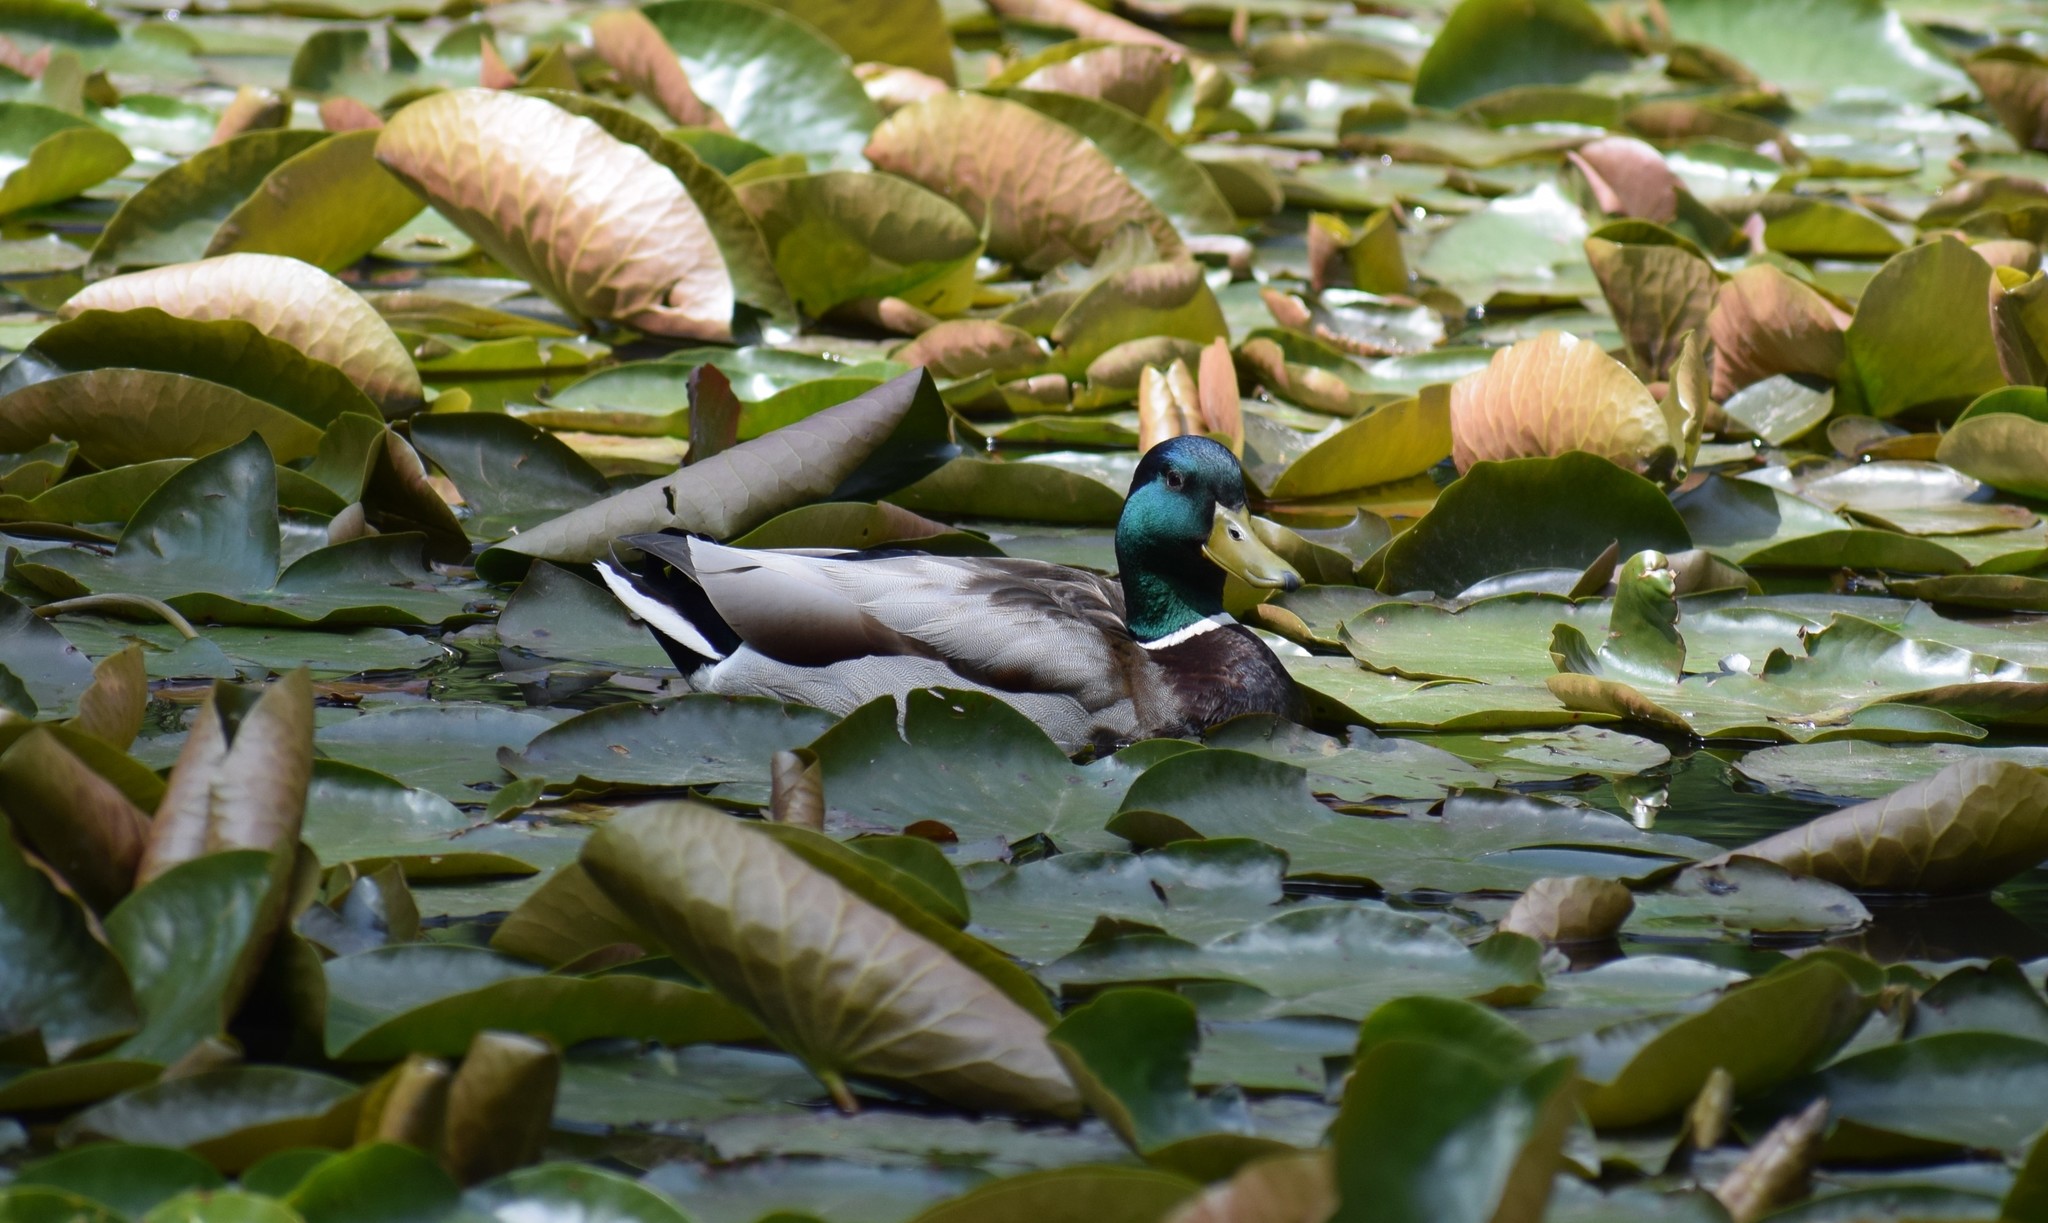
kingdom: Animalia
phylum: Chordata
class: Aves
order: Anseriformes
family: Anatidae
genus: Anas
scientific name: Anas platyrhynchos
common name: Mallard
